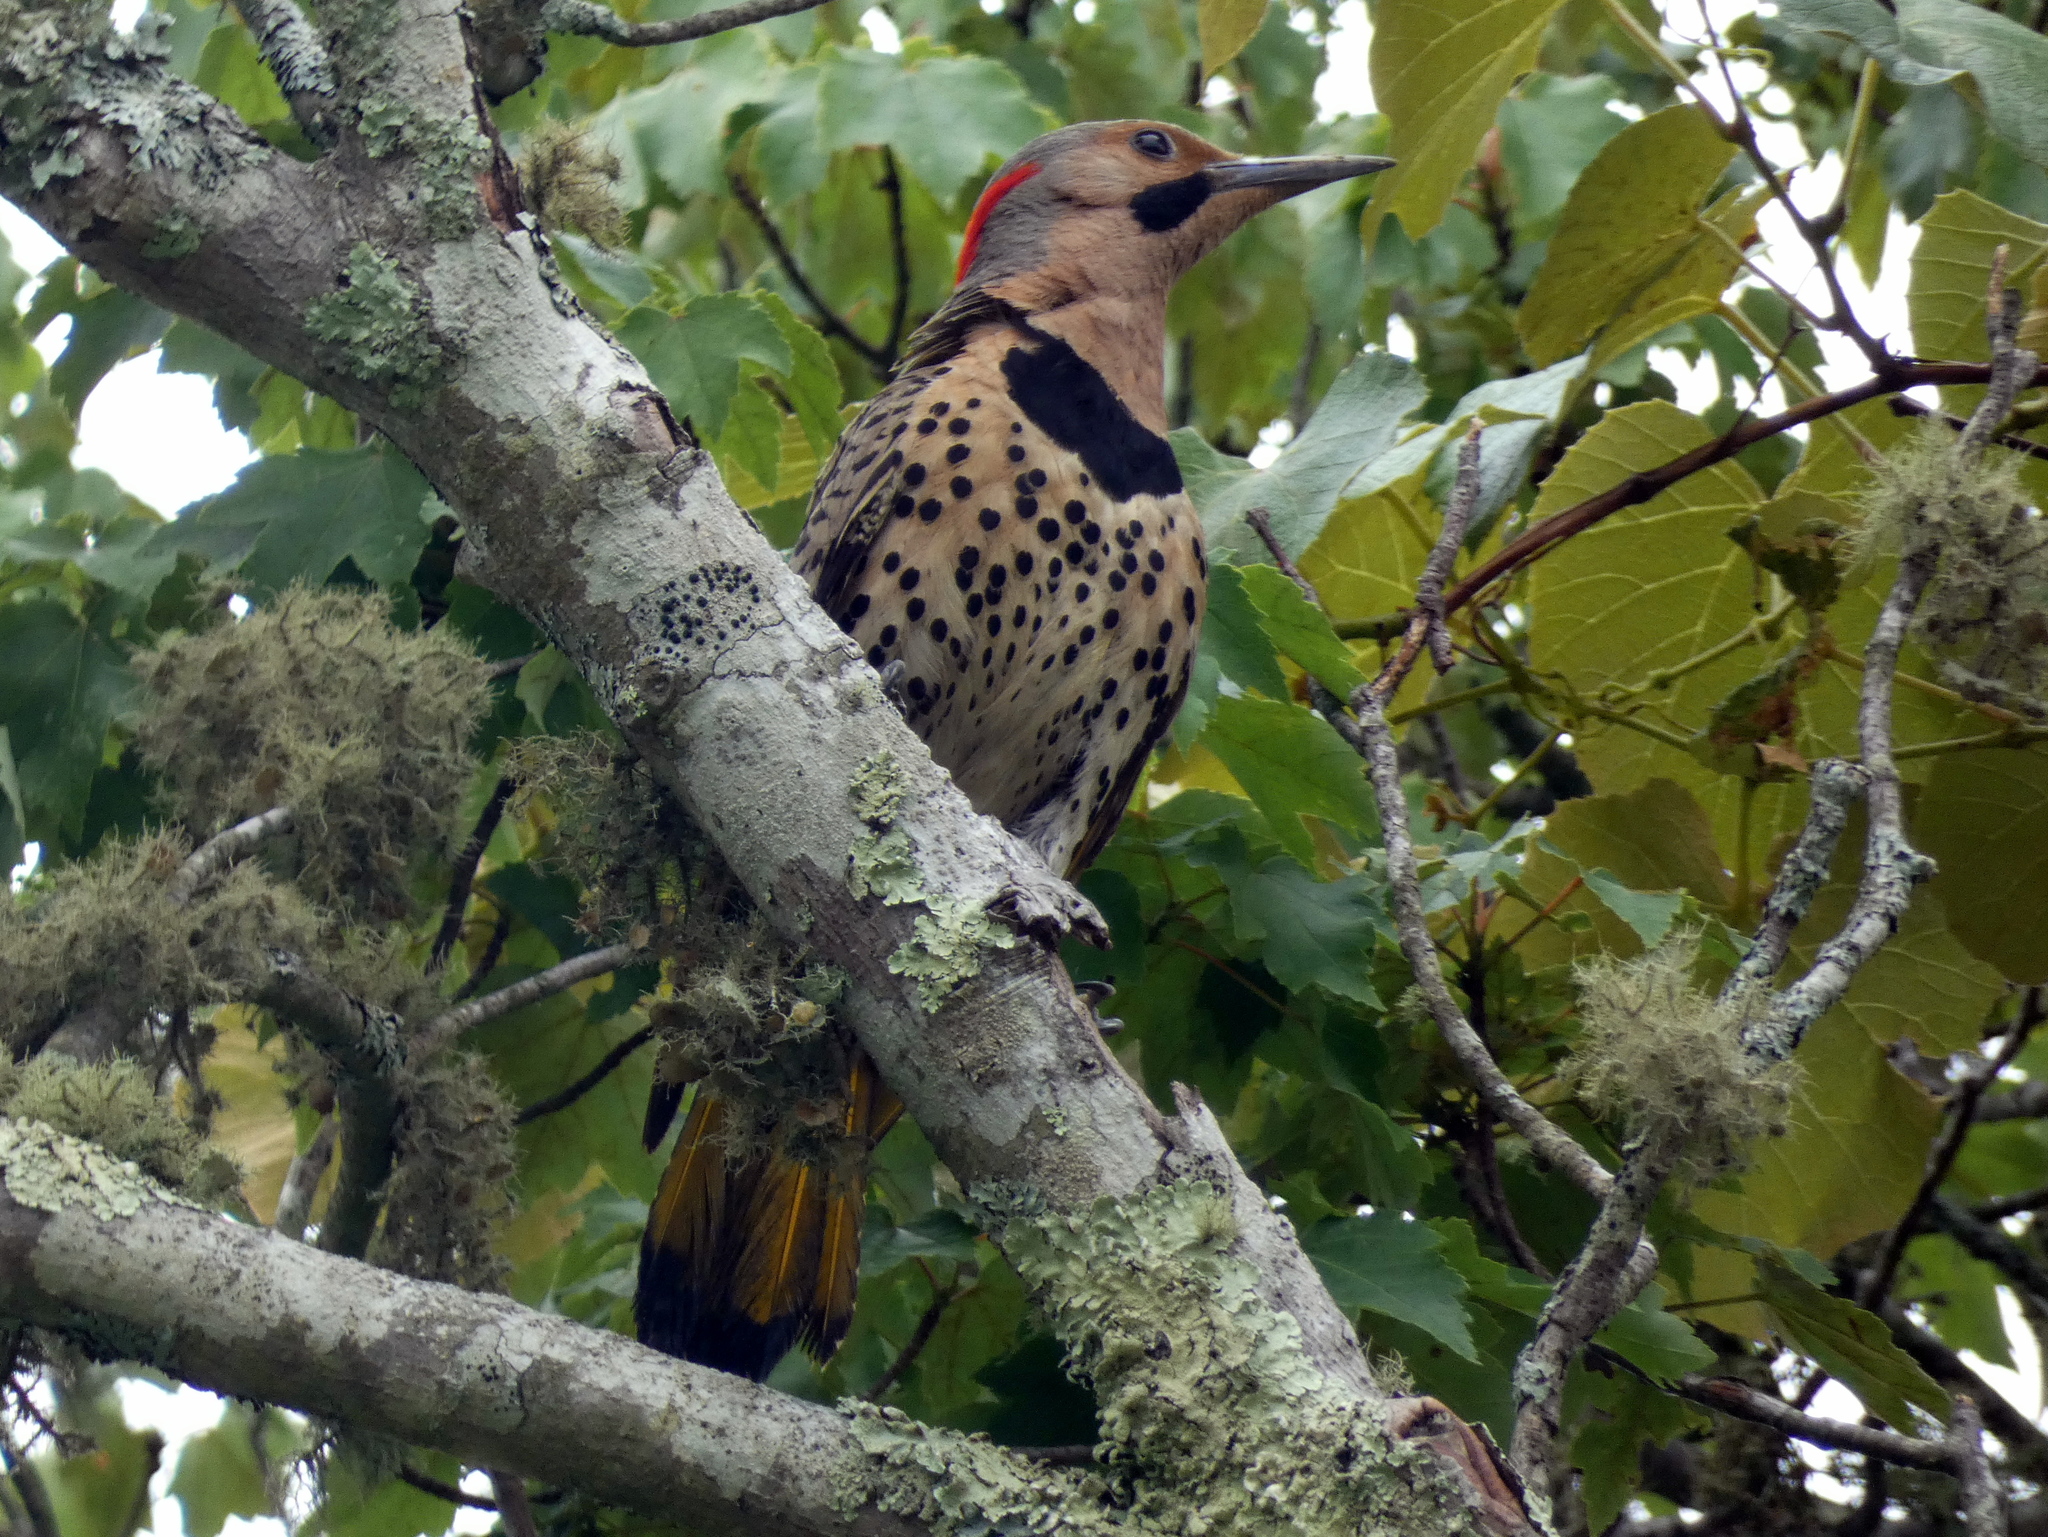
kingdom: Animalia
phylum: Chordata
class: Aves
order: Piciformes
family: Picidae
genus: Colaptes
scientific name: Colaptes auratus
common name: Northern flicker
